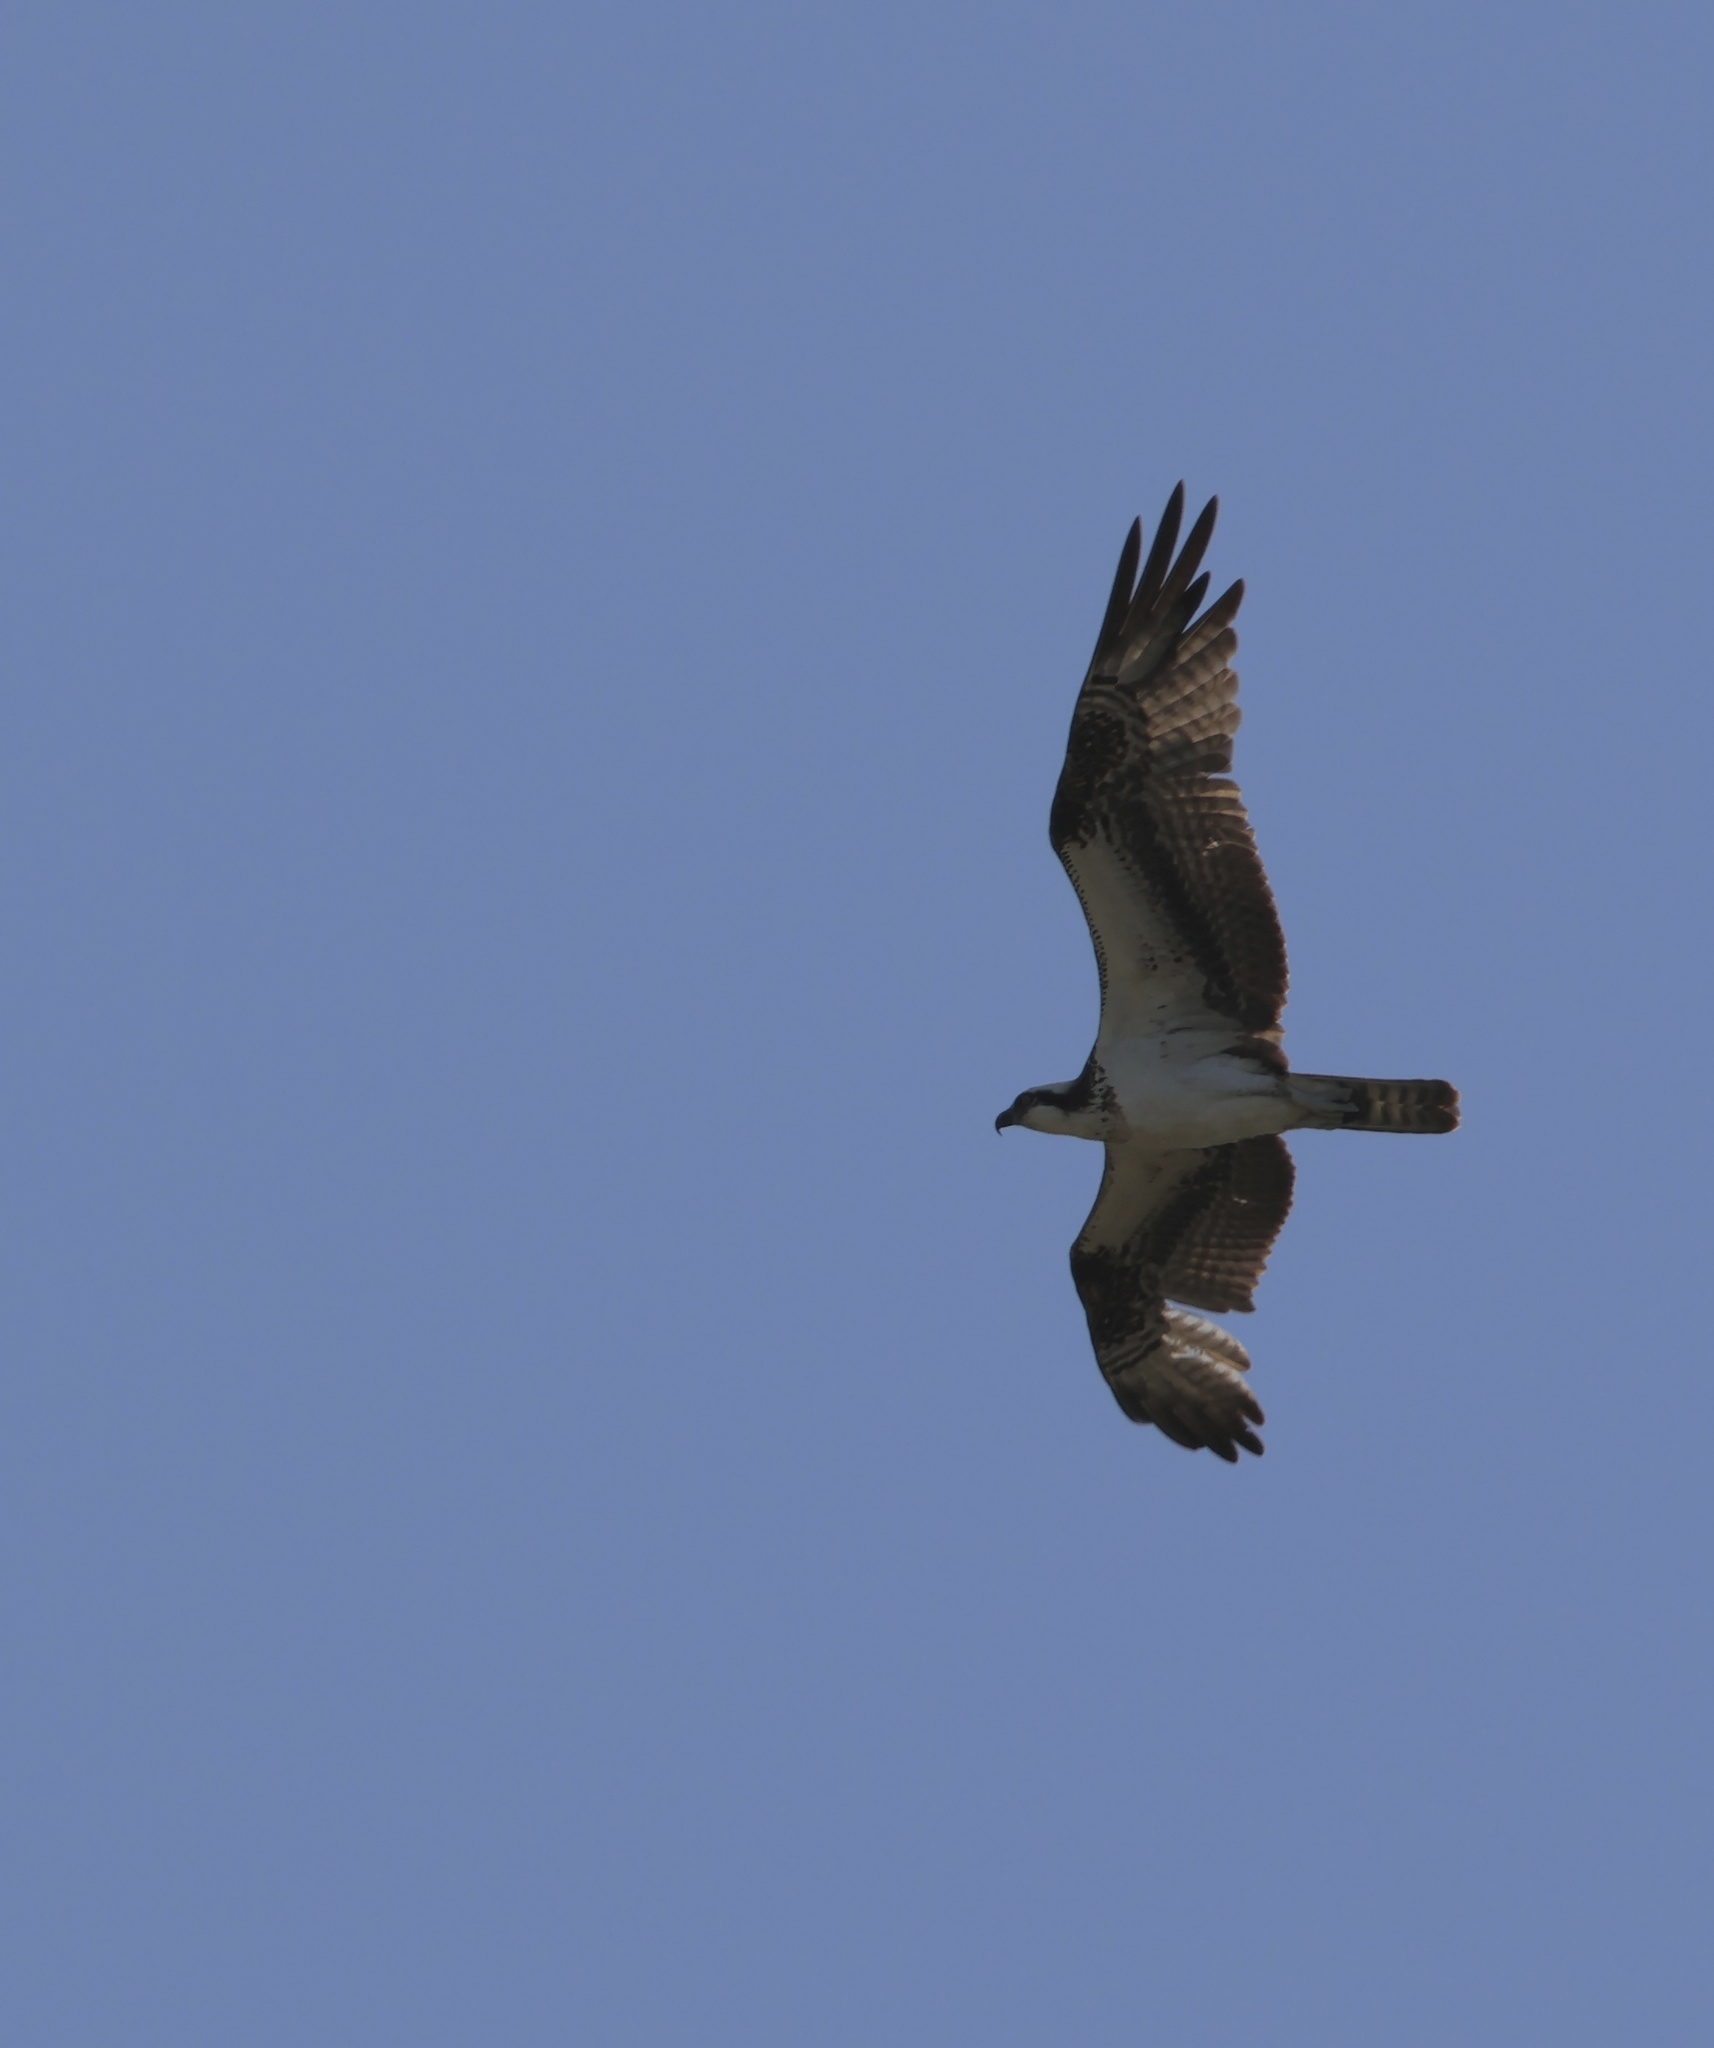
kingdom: Animalia
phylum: Chordata
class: Aves
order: Accipitriformes
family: Pandionidae
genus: Pandion
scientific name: Pandion haliaetus
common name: Osprey
